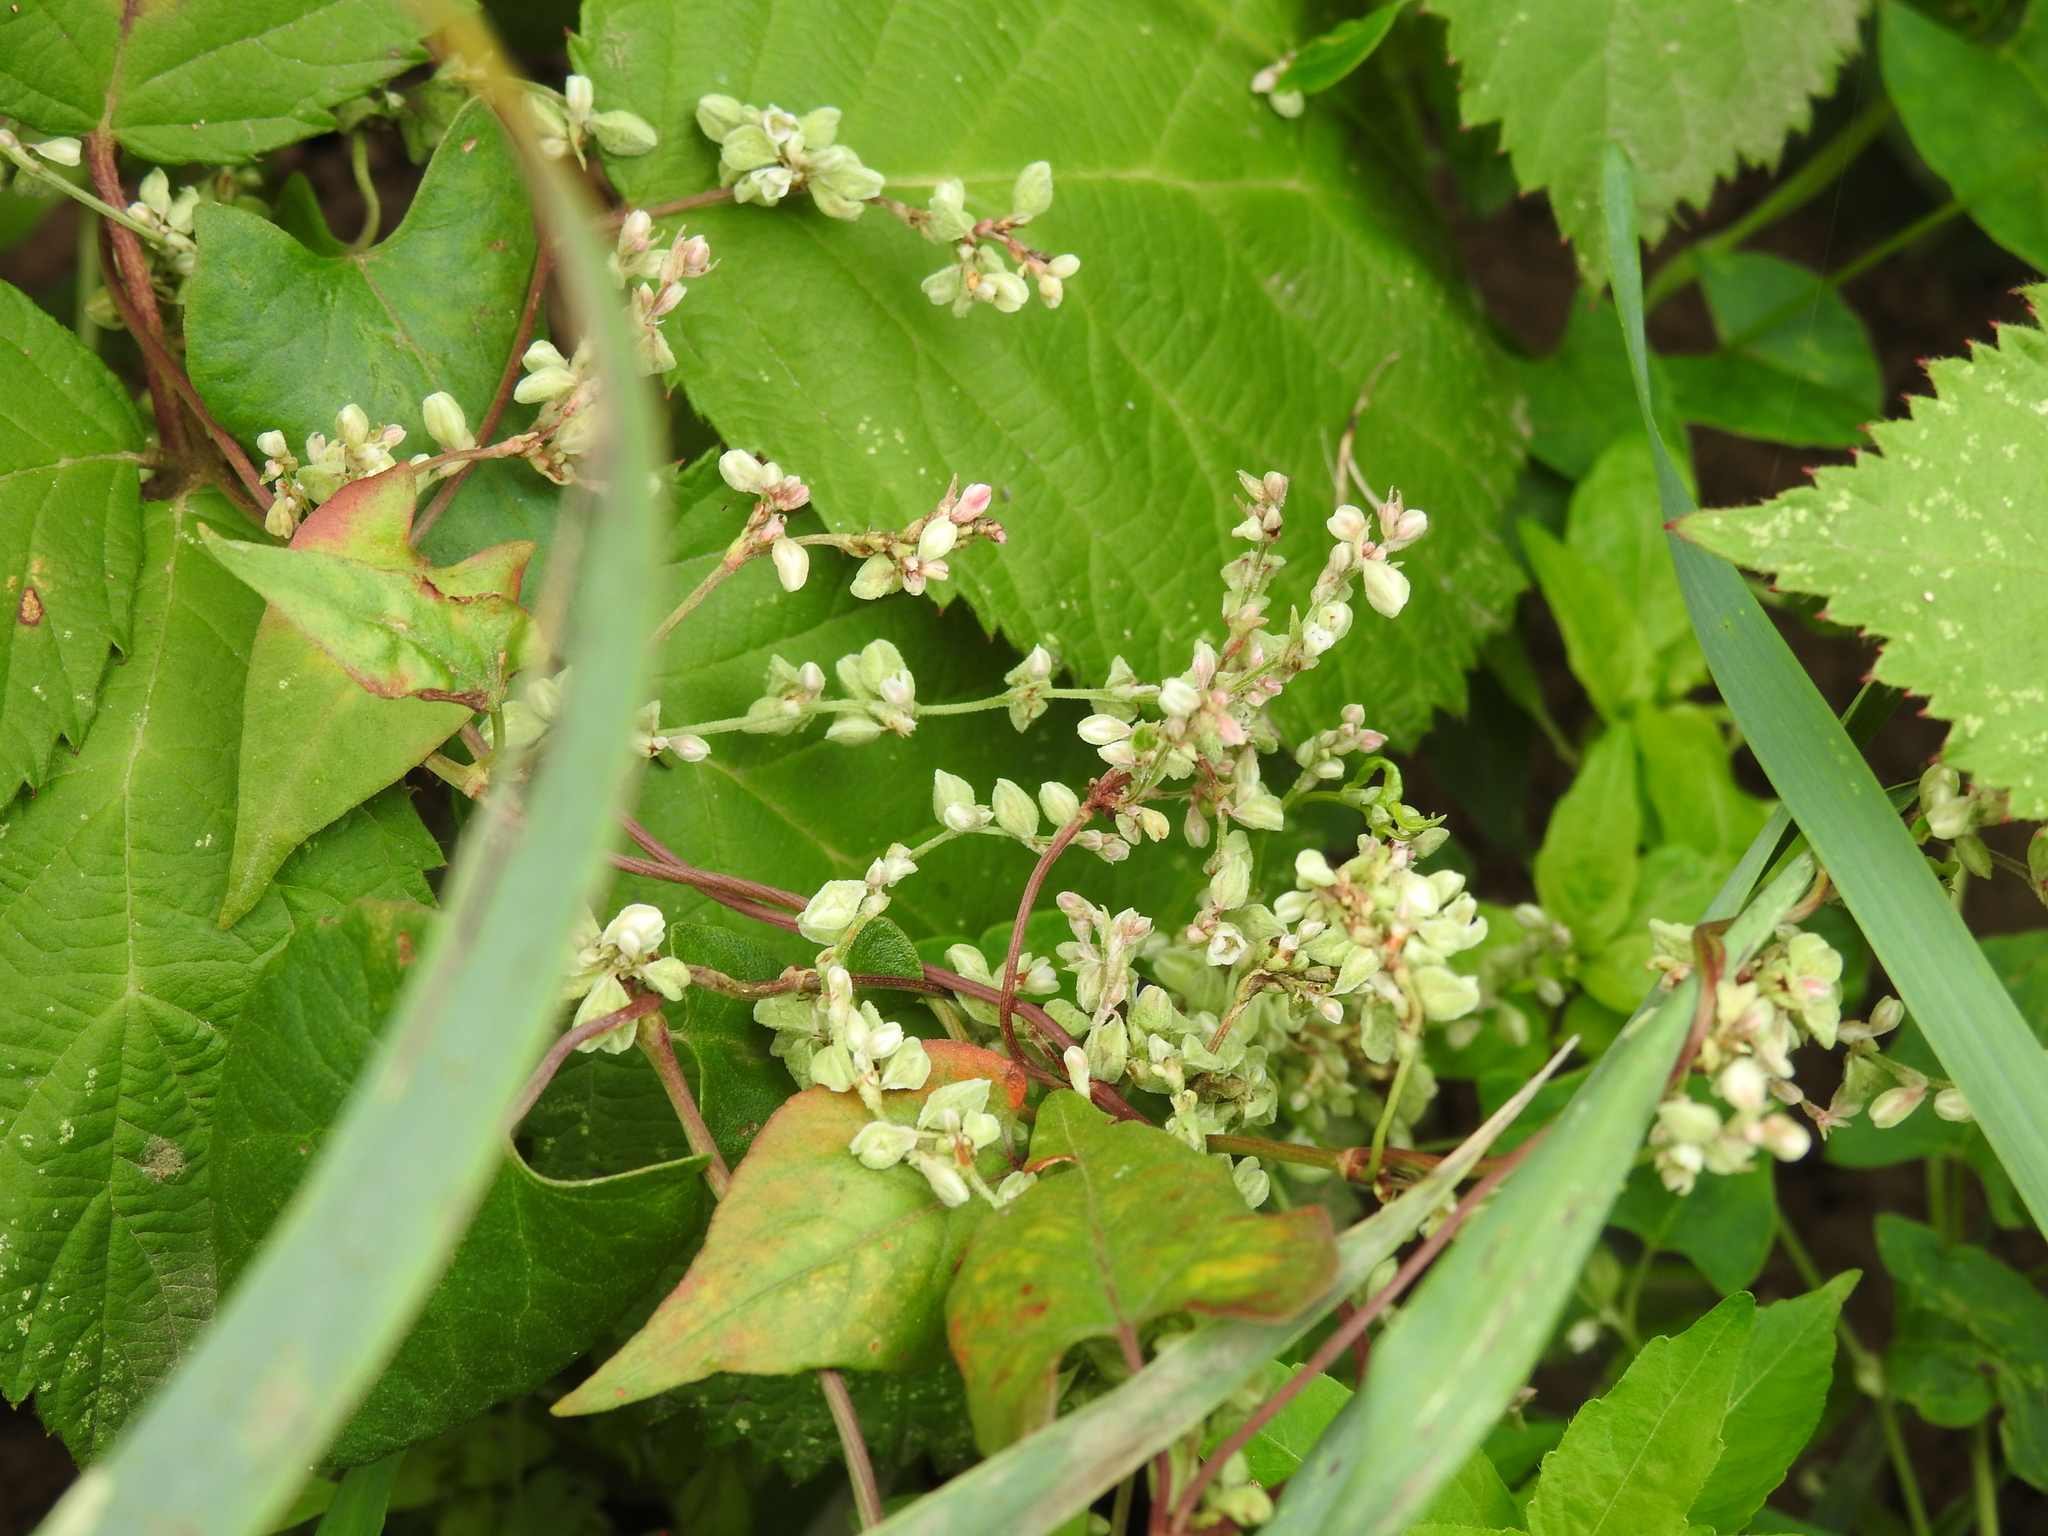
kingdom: Plantae
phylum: Tracheophyta
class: Magnoliopsida
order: Caryophyllales
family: Polygonaceae
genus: Fallopia
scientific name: Fallopia convolvulus
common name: Black bindweed
